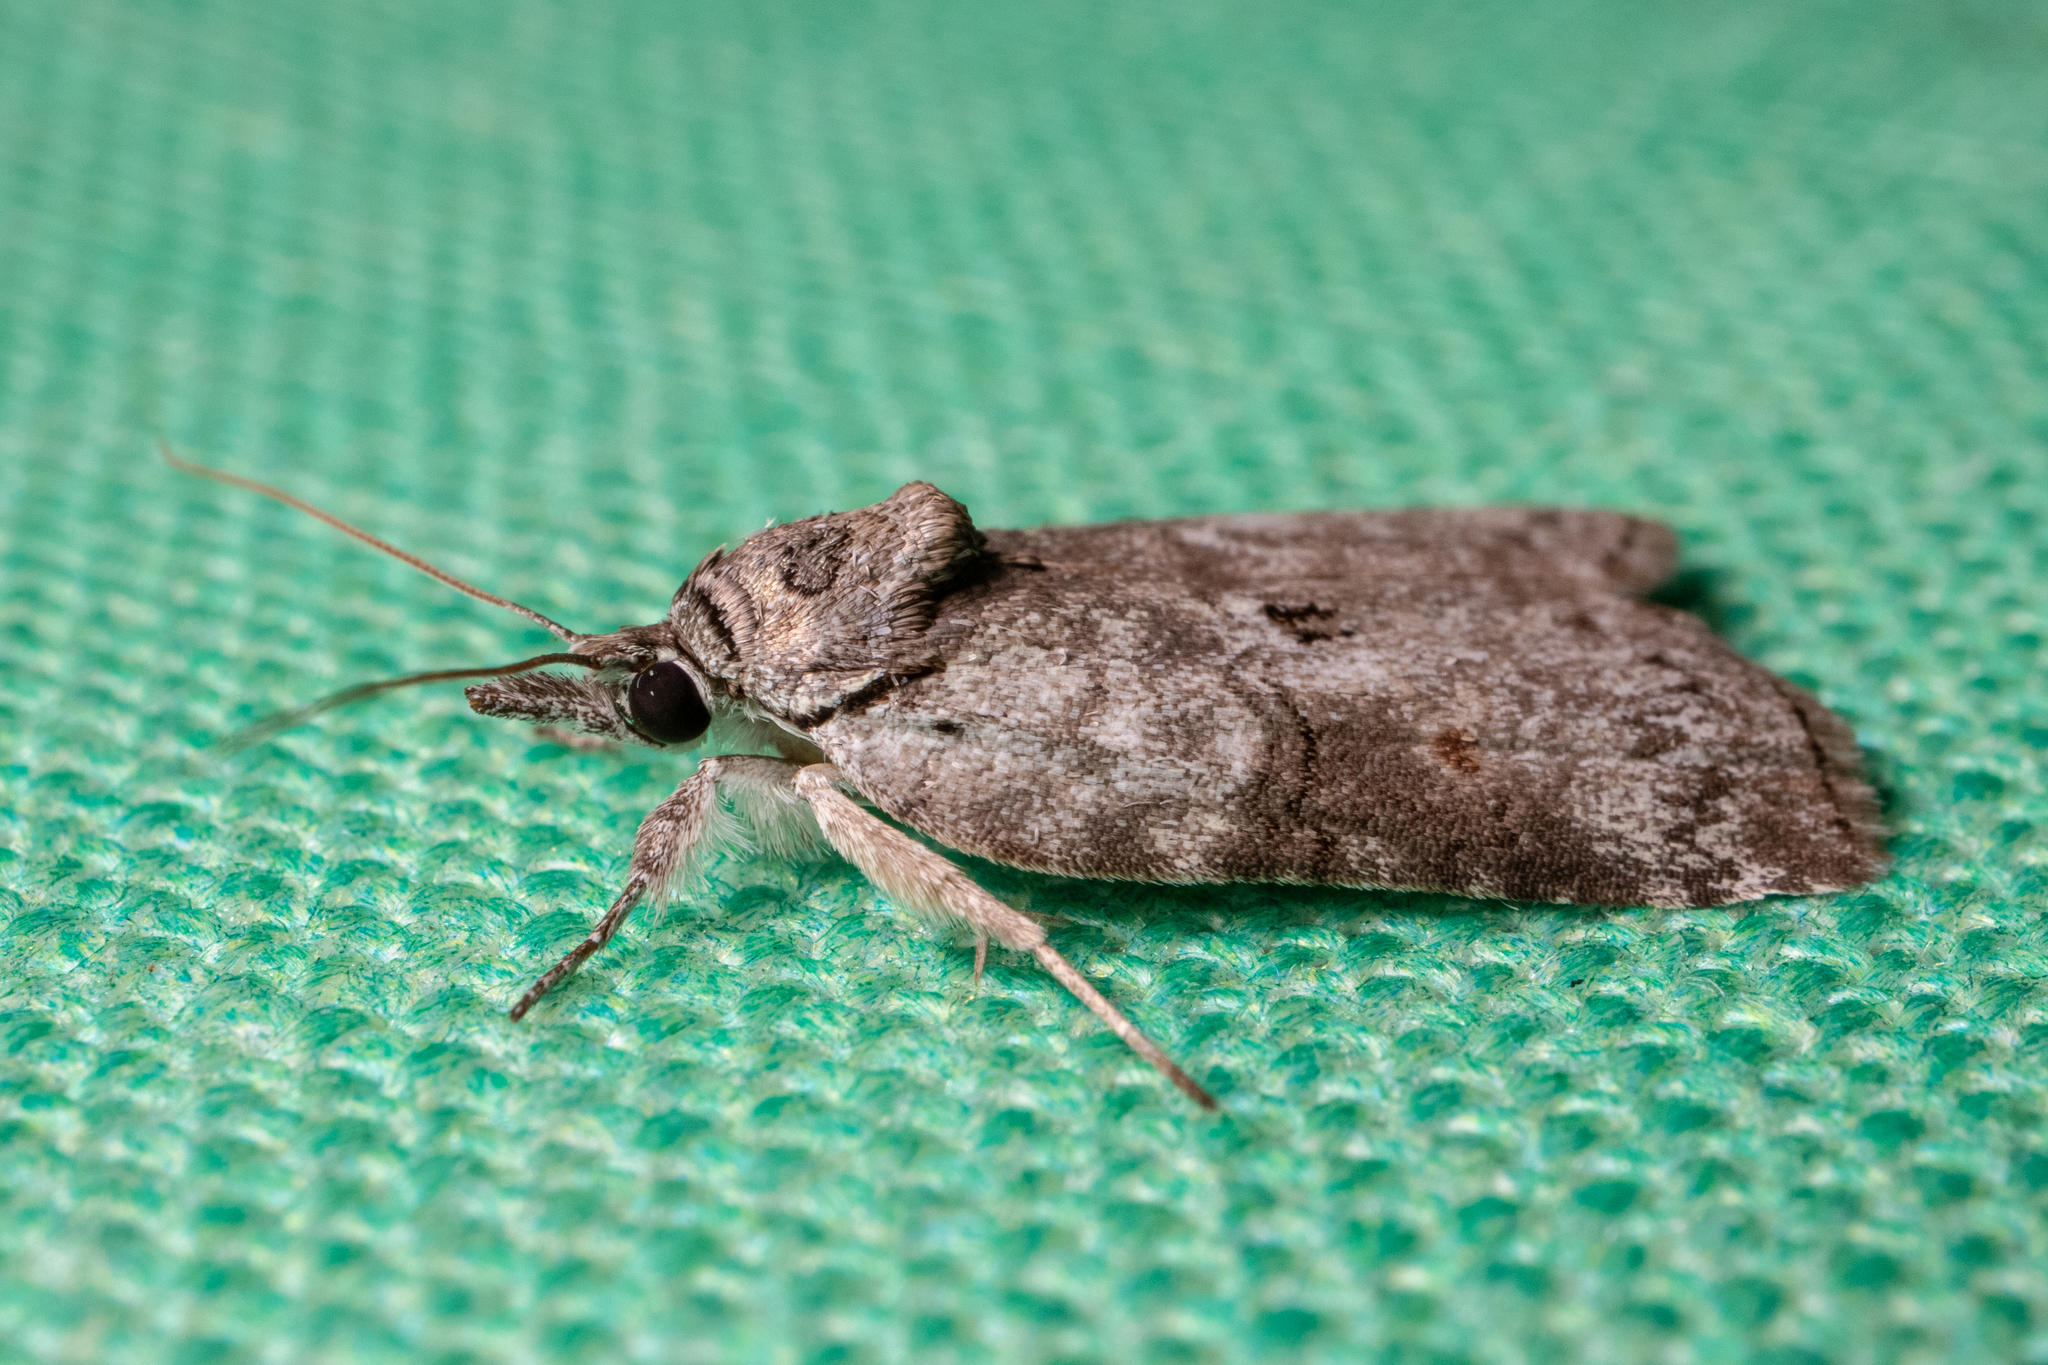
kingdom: Animalia
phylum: Arthropoda
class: Insecta
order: Lepidoptera
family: Nolidae
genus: Nycteola
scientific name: Nycteola metaspilella
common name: Forgotten frigid owlet
